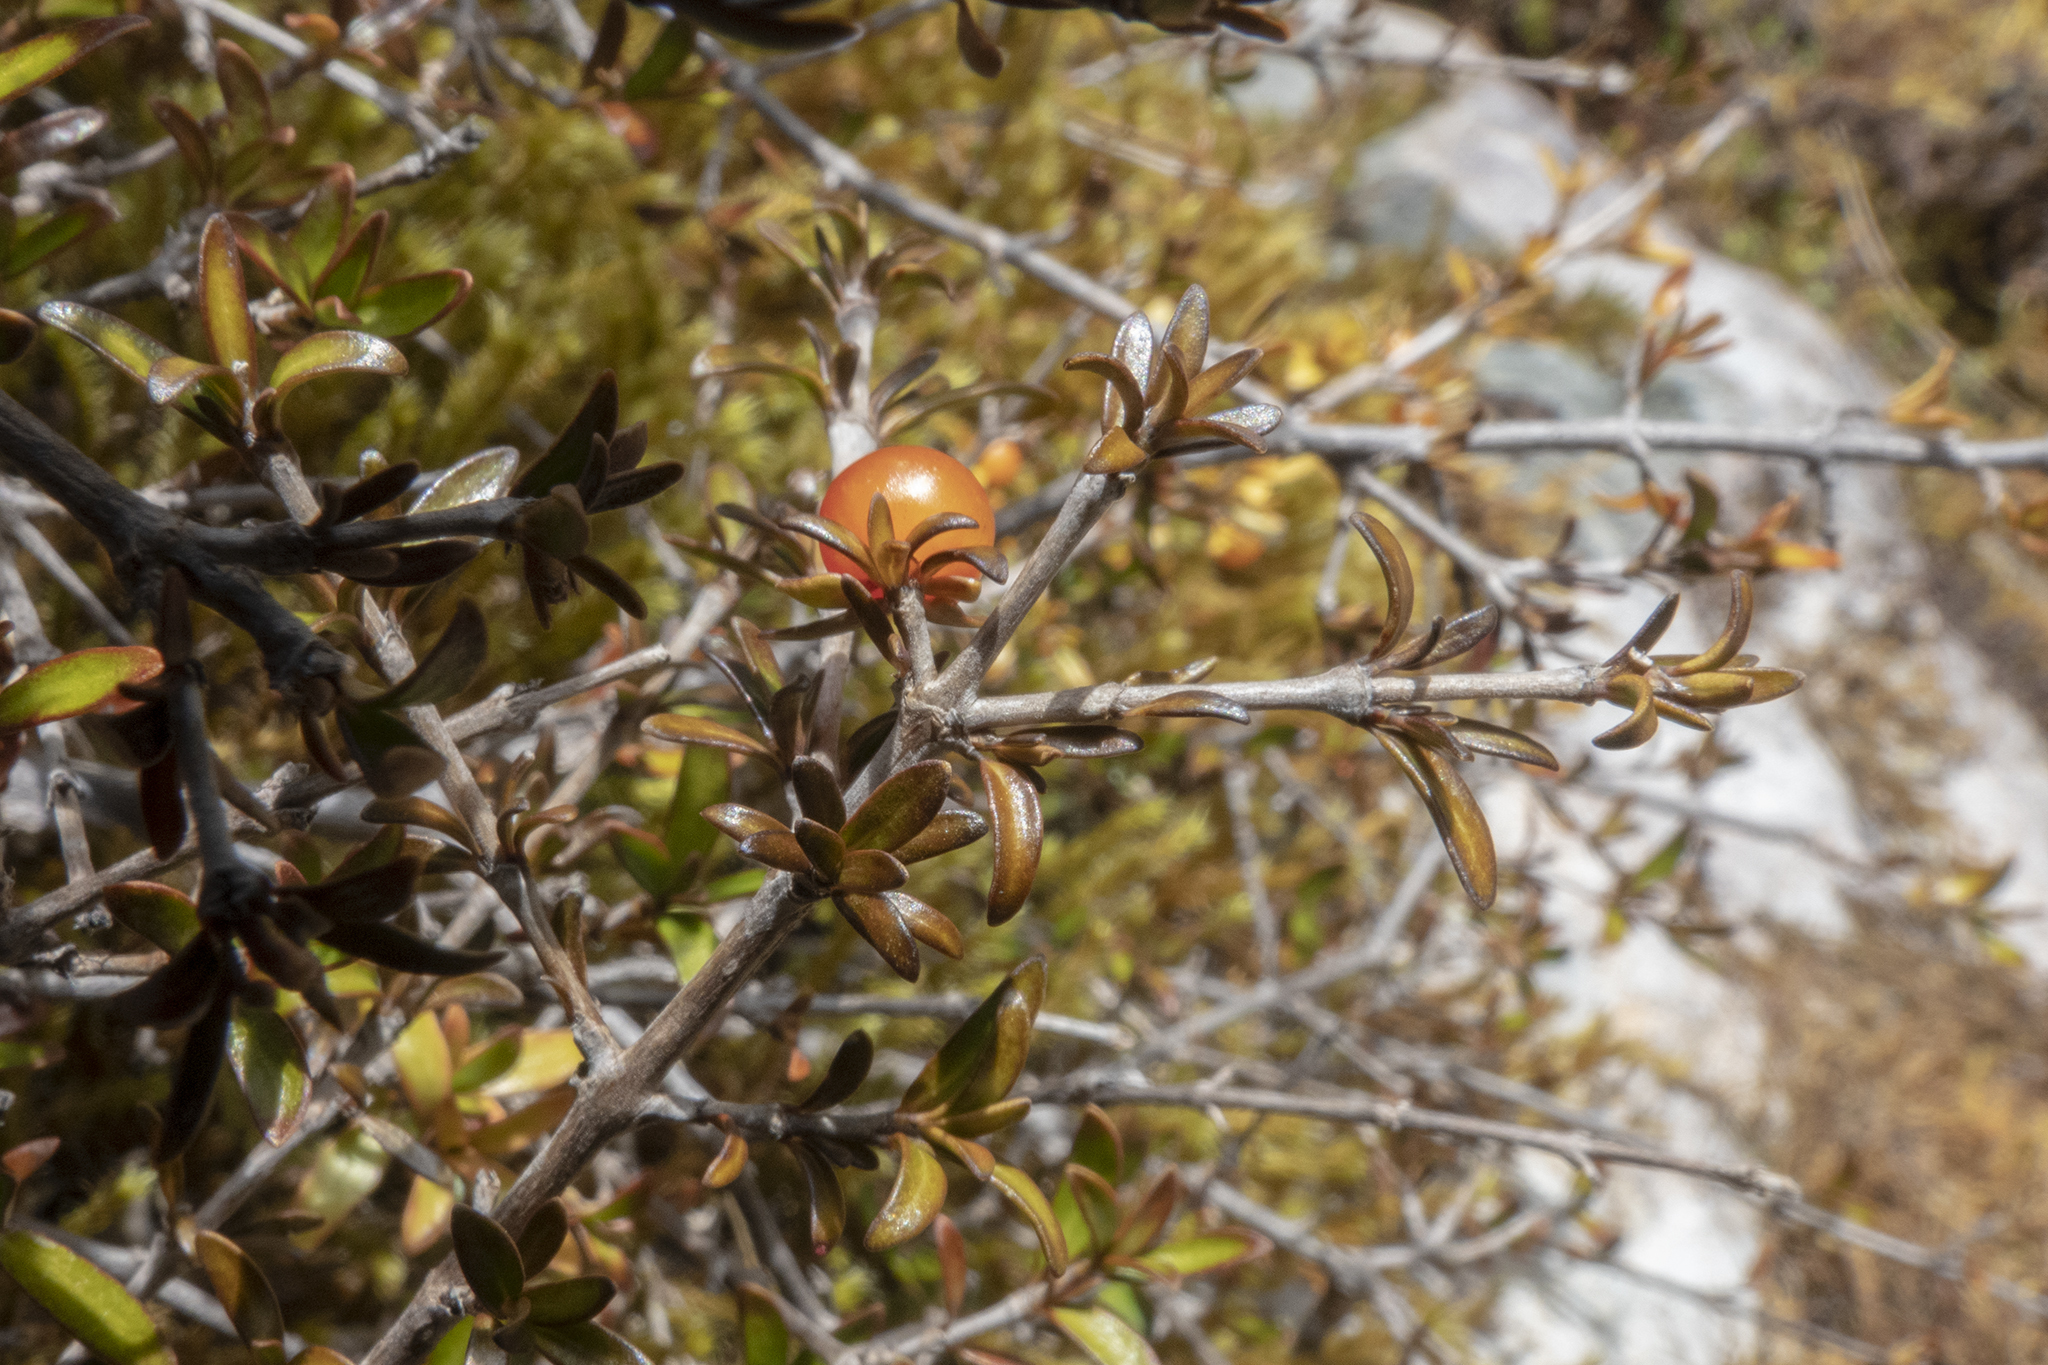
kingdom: Plantae
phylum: Tracheophyta
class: Magnoliopsida
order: Gentianales
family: Rubiaceae
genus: Coprosma
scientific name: Coprosma cheesemanii
